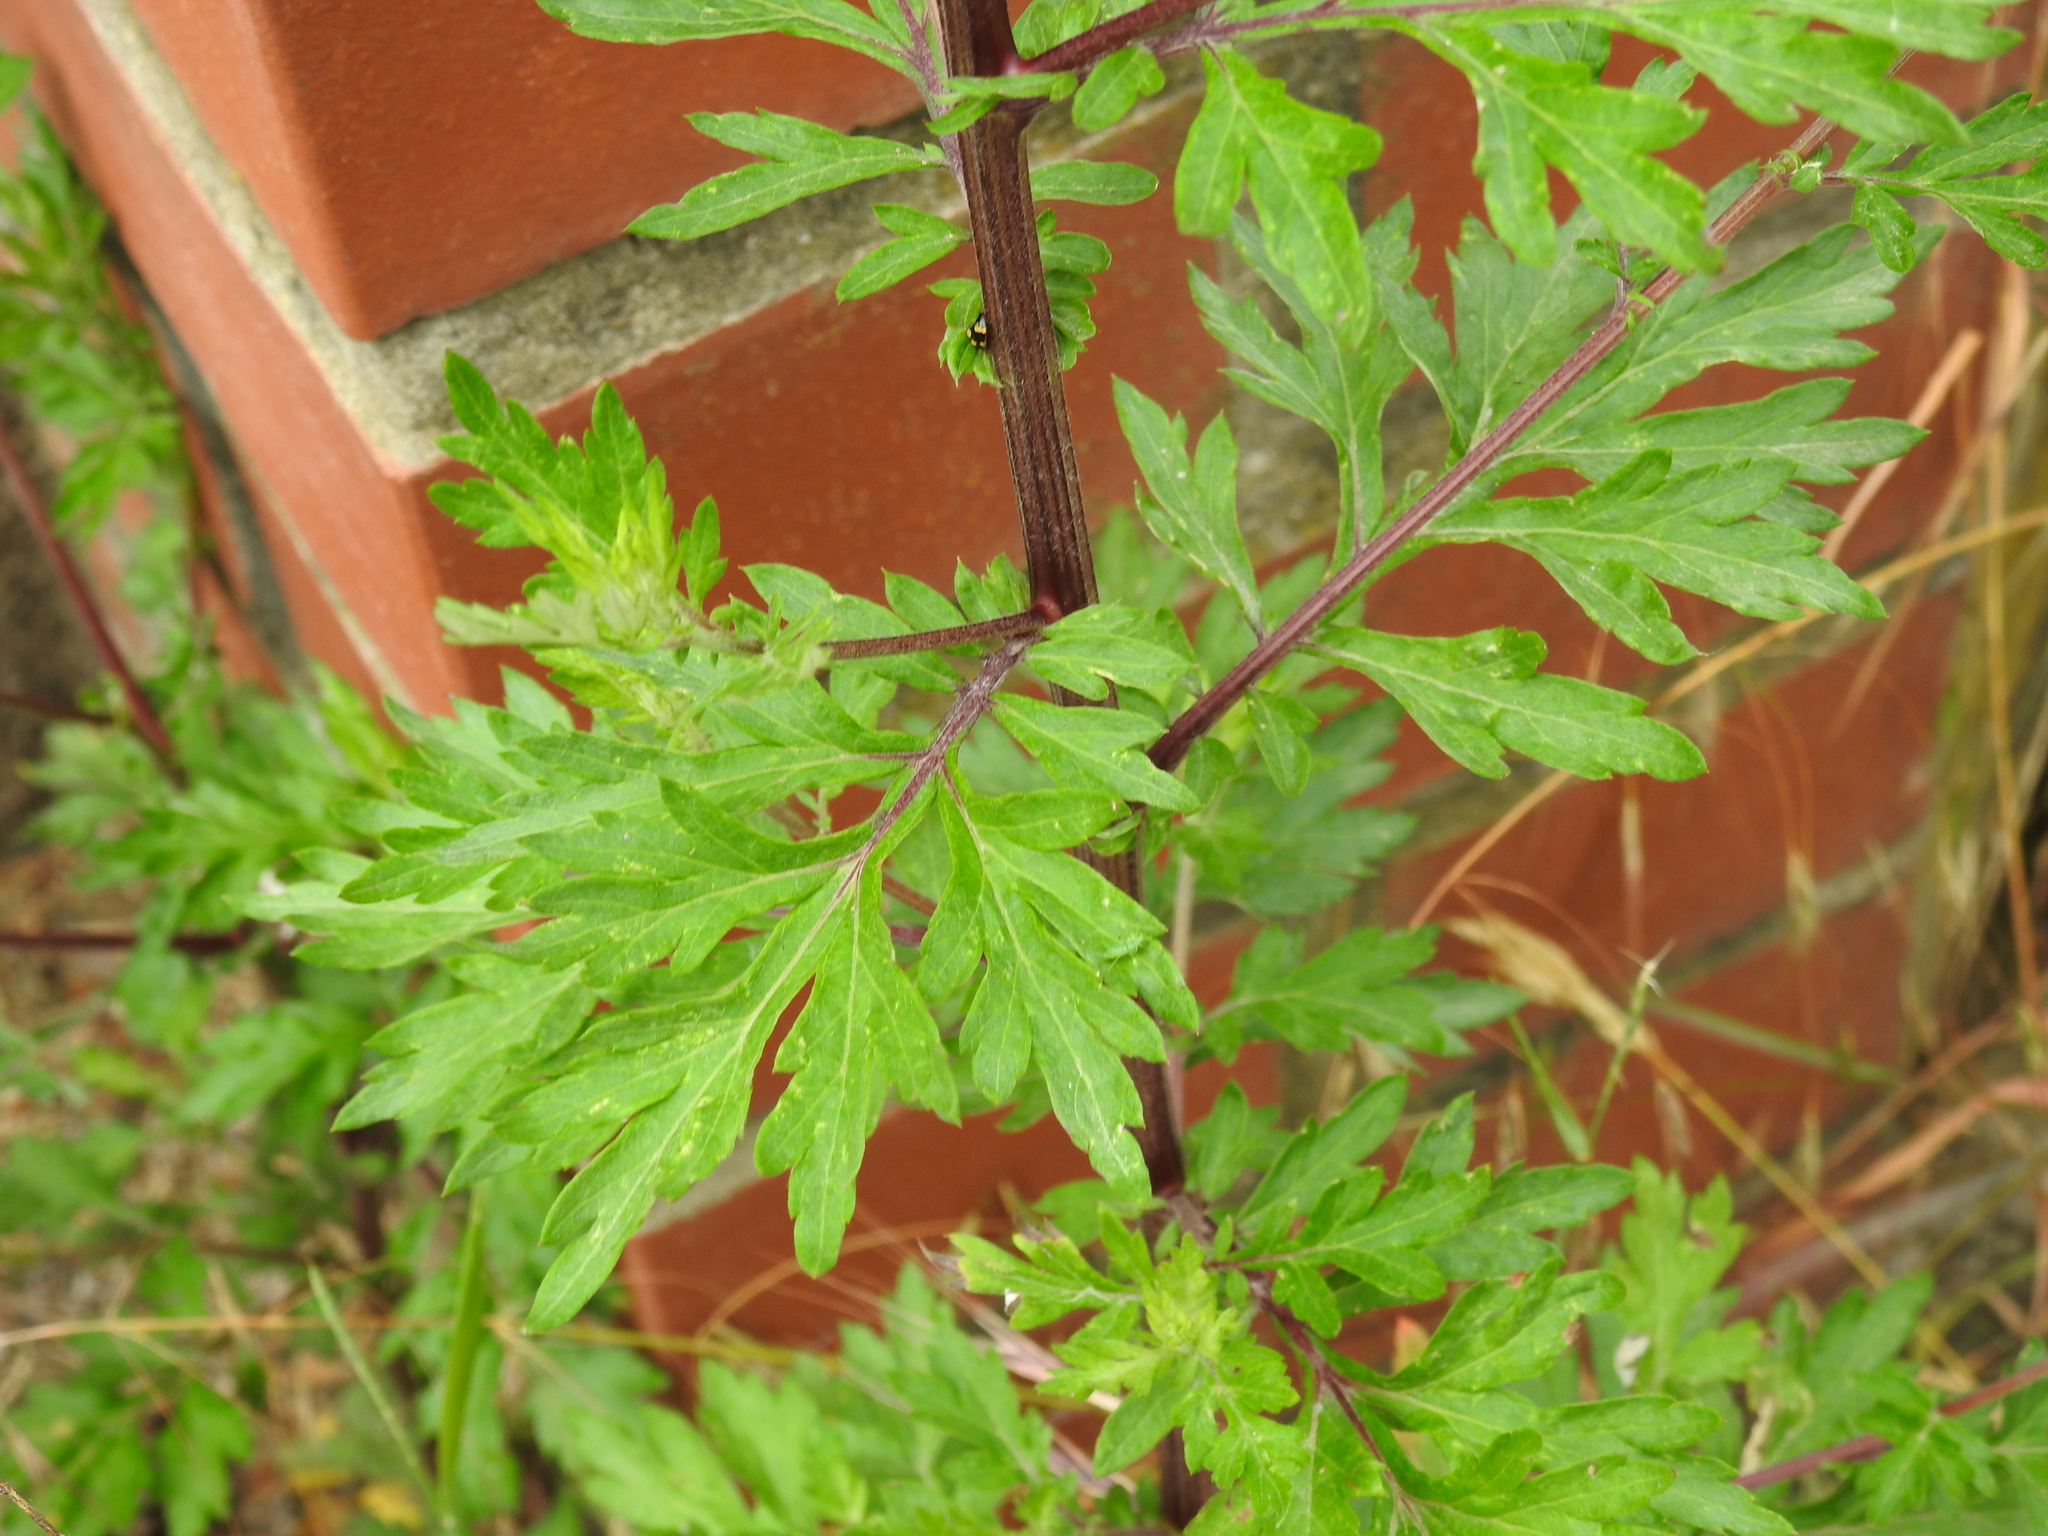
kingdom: Plantae
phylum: Tracheophyta
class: Magnoliopsida
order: Asterales
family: Asteraceae
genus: Artemisia
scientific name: Artemisia vulgaris
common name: Mugwort
